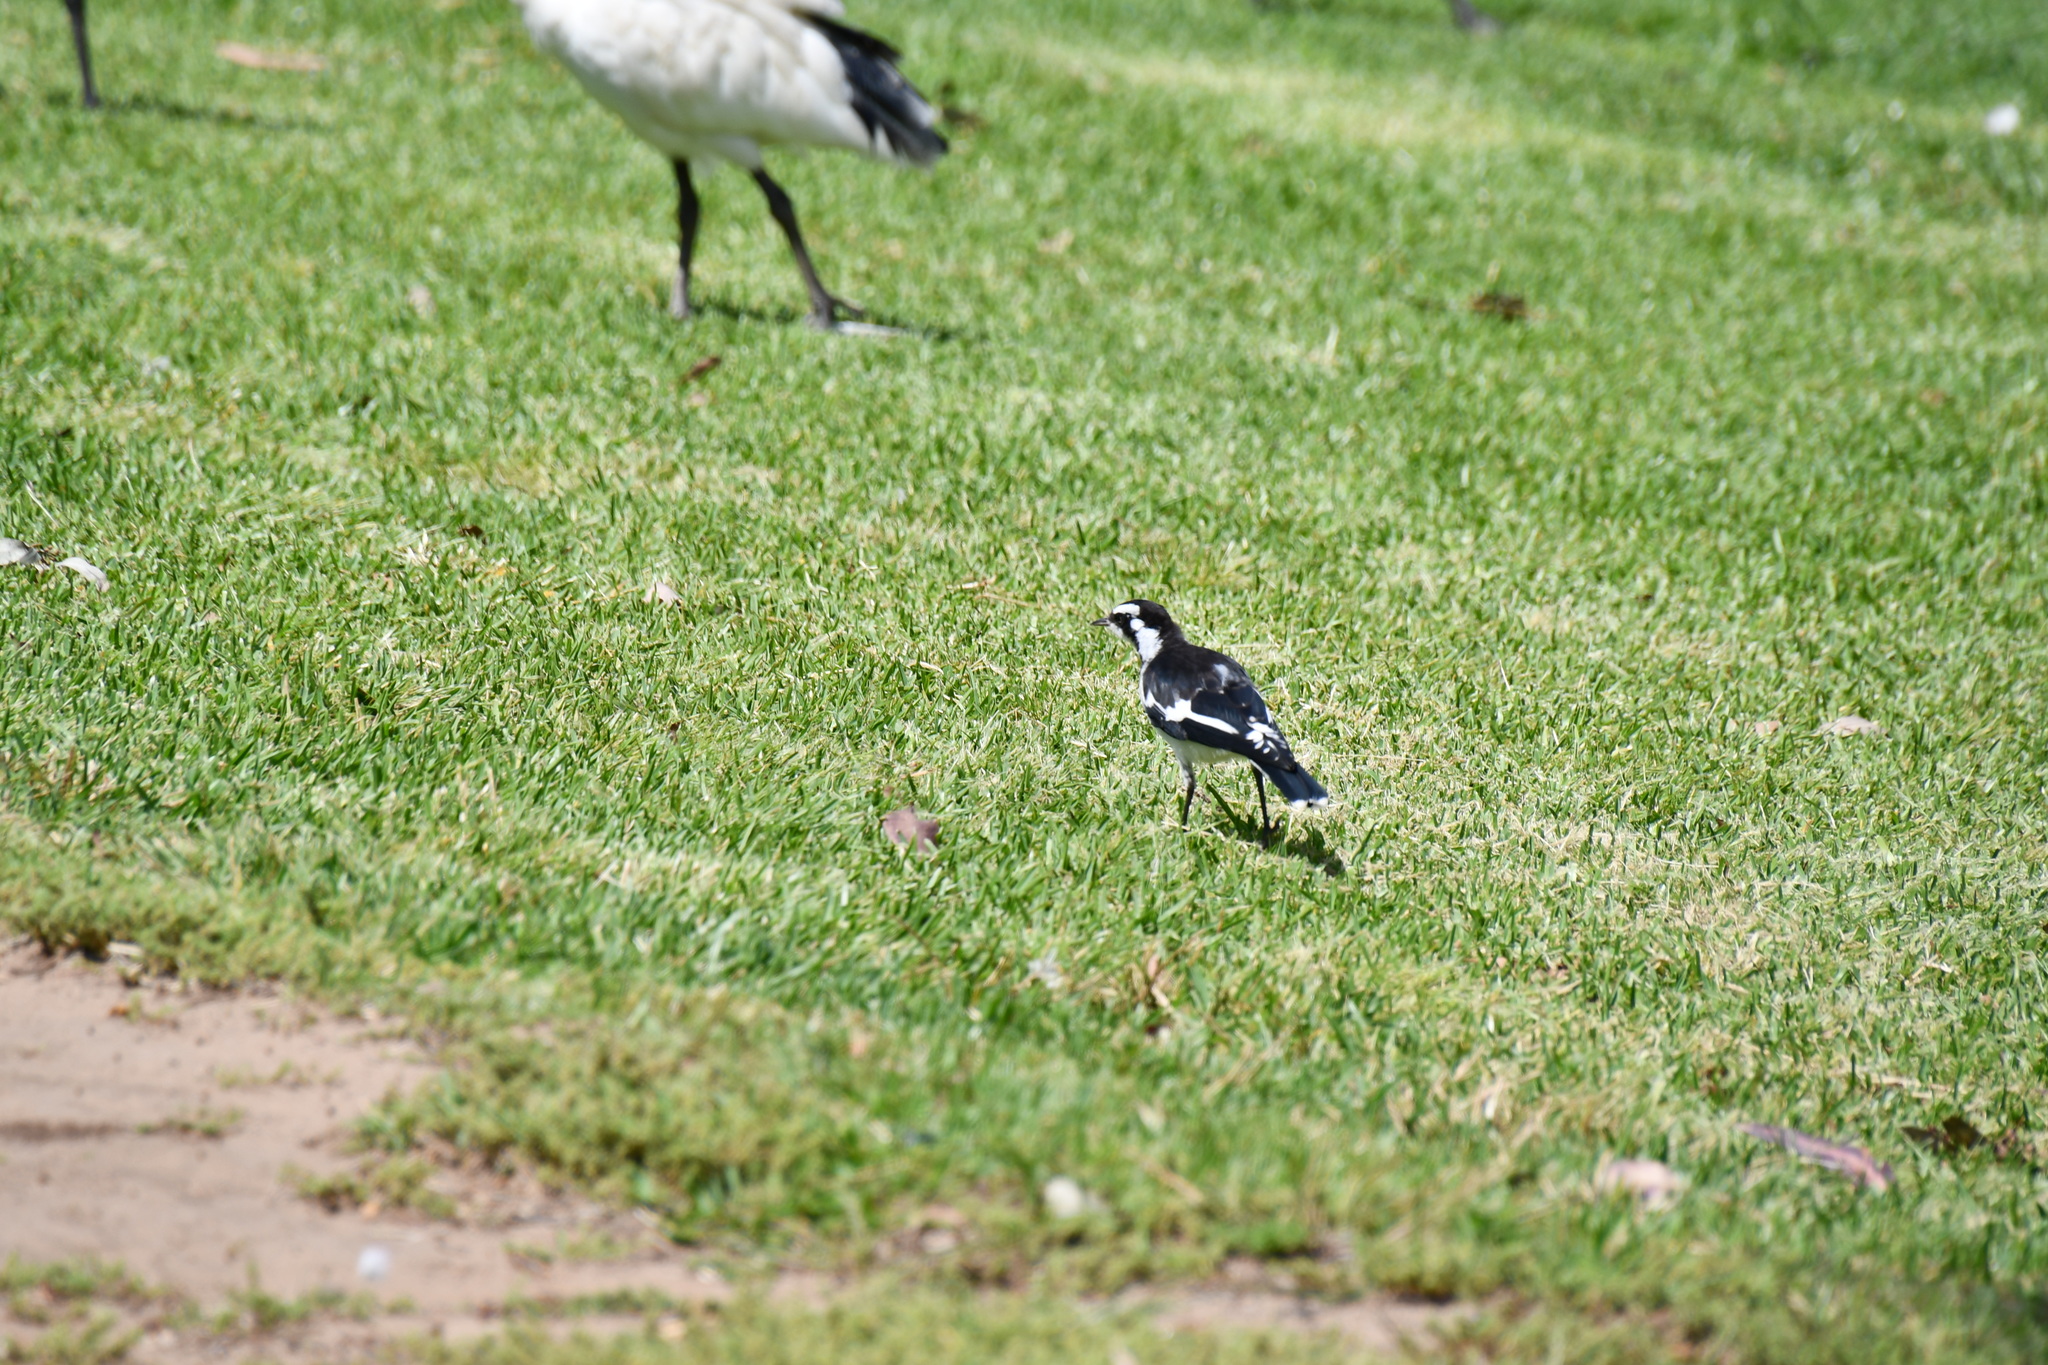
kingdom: Animalia
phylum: Chordata
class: Aves
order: Passeriformes
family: Monarchidae
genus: Grallina
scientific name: Grallina cyanoleuca
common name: Magpie-lark
